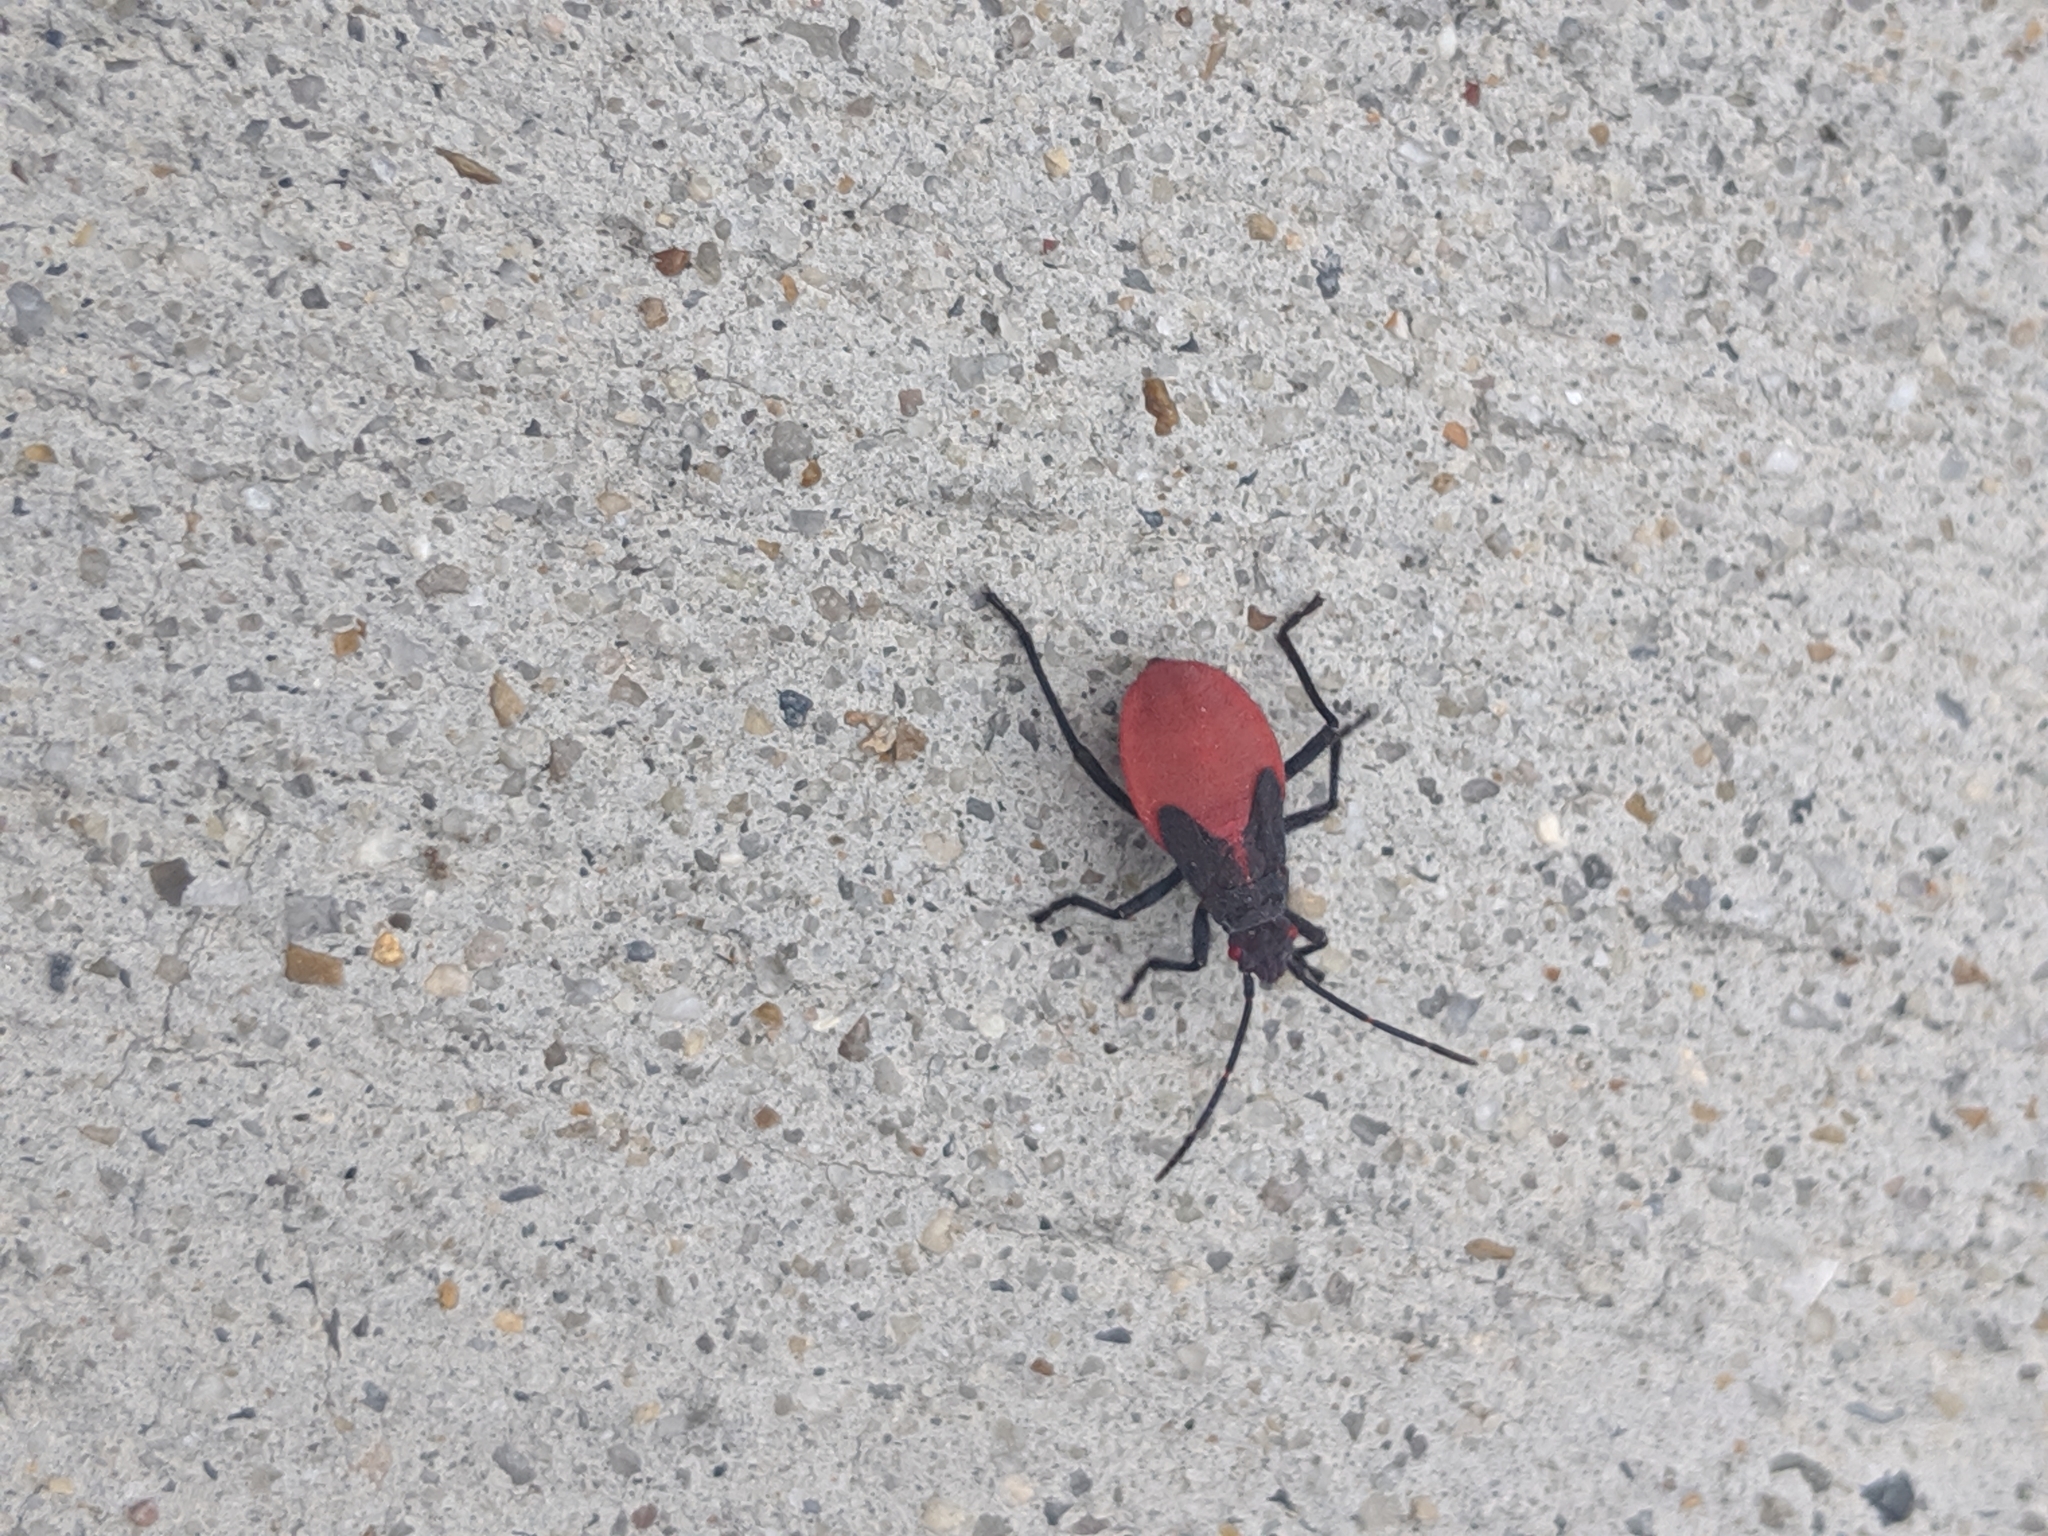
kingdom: Animalia
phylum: Arthropoda
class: Insecta
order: Hemiptera
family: Rhopalidae
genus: Jadera
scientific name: Jadera haematoloma
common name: Red-shouldered bug
